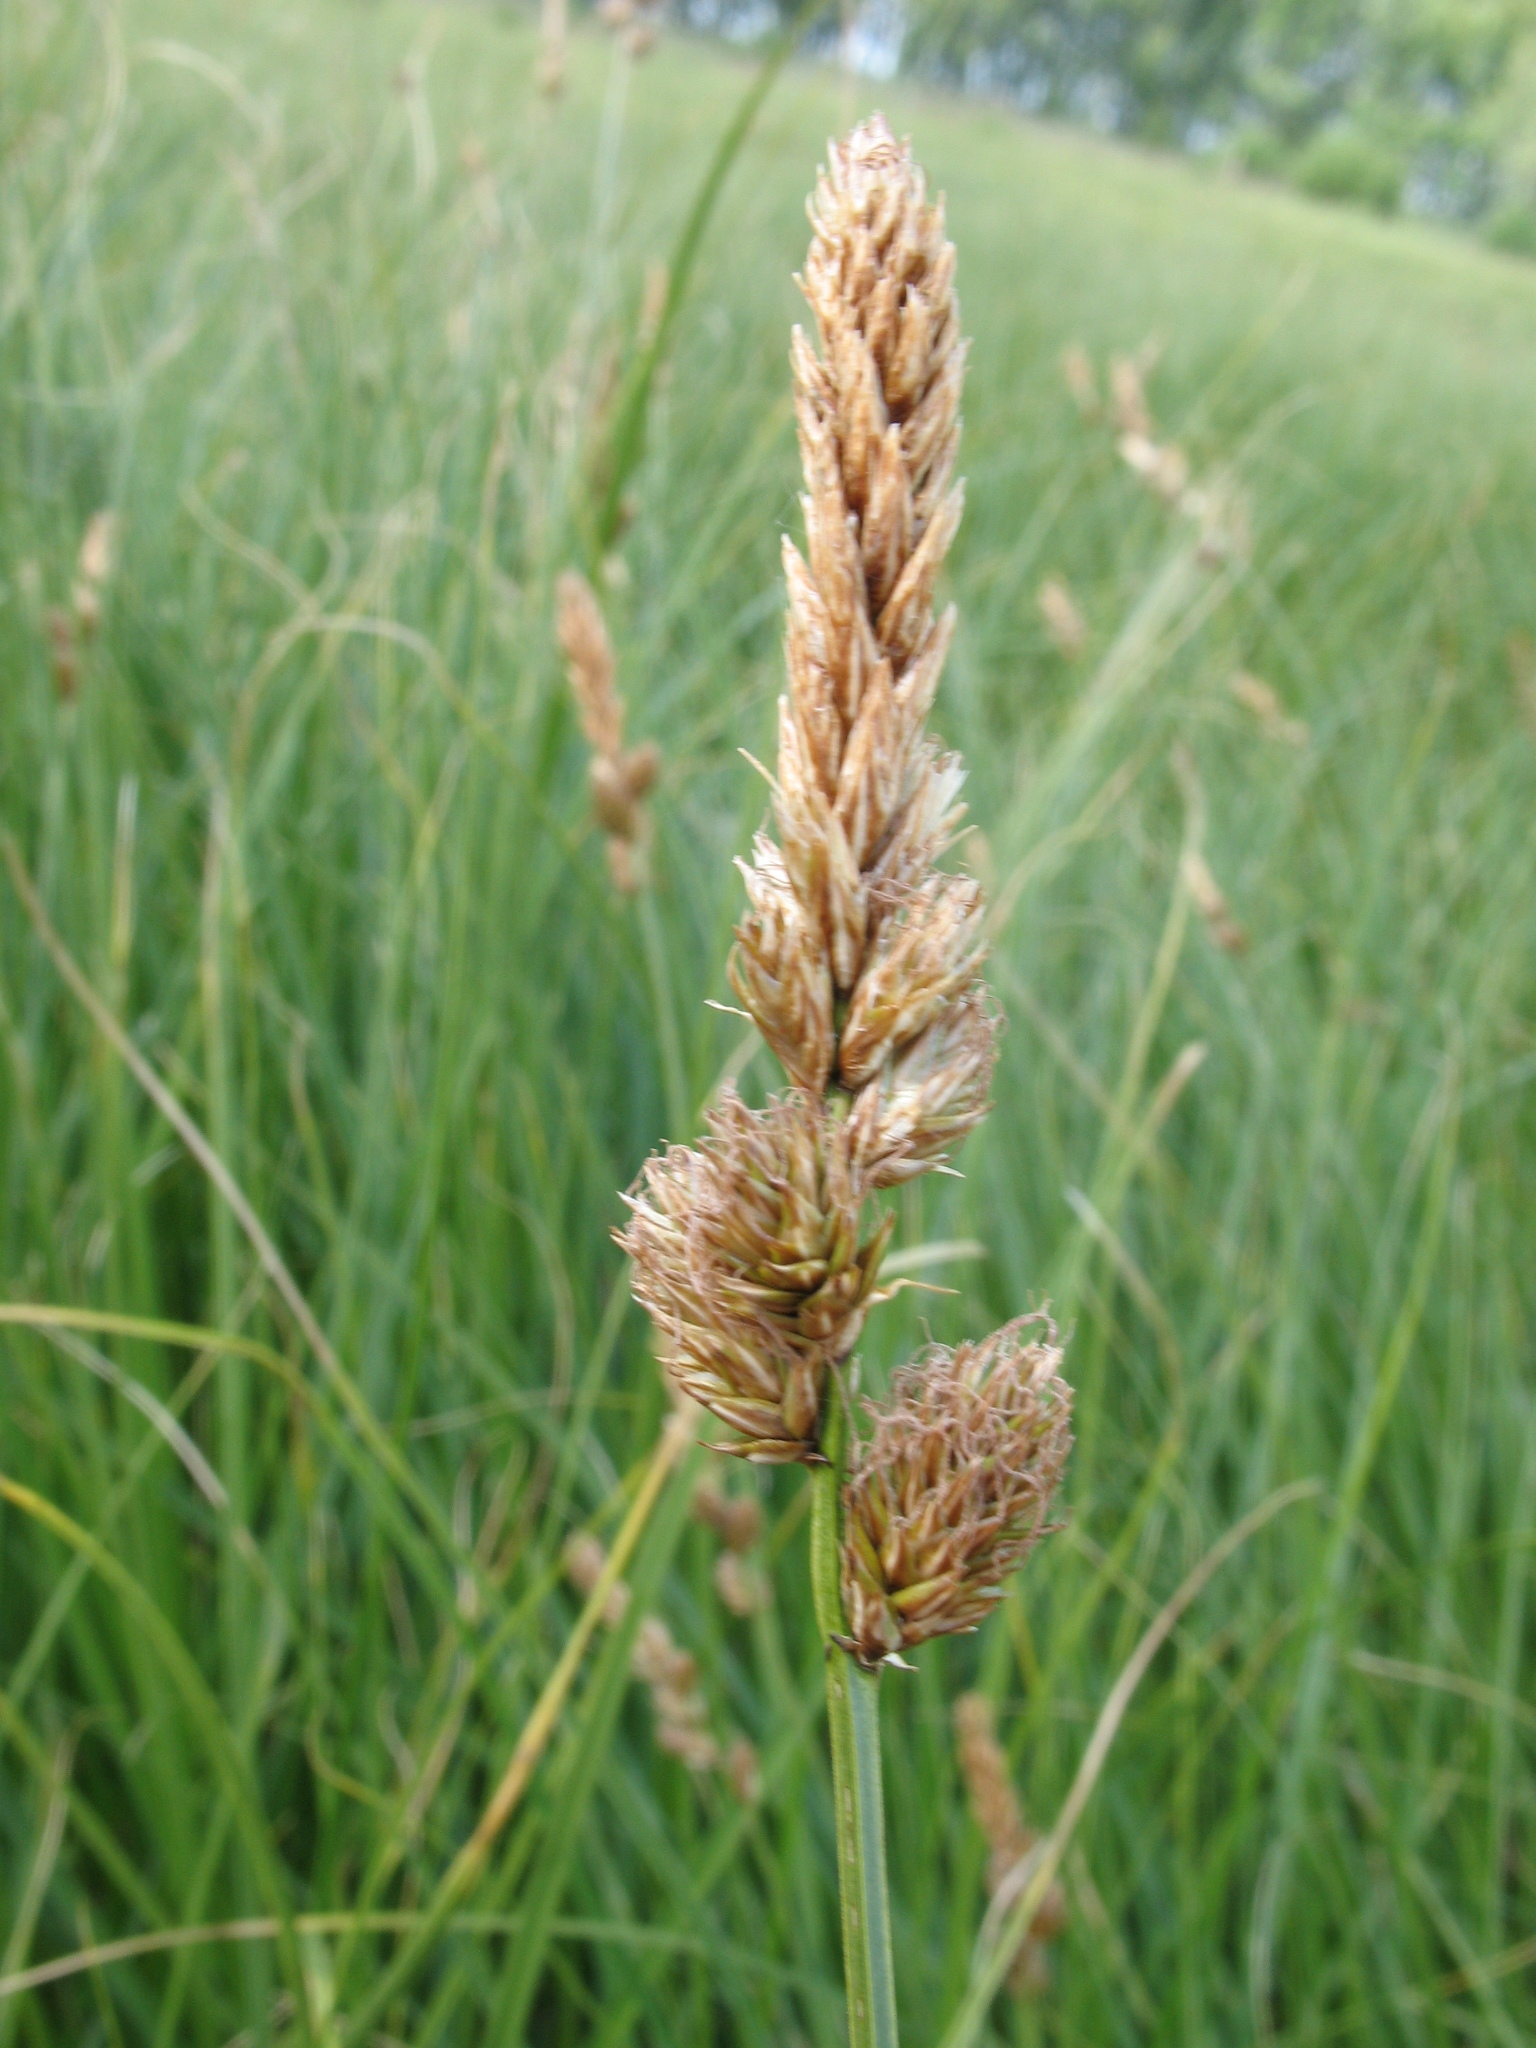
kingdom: Plantae
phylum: Tracheophyta
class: Liliopsida
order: Poales
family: Cyperaceae
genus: Carex
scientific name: Carex disticha
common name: Brown sedge
